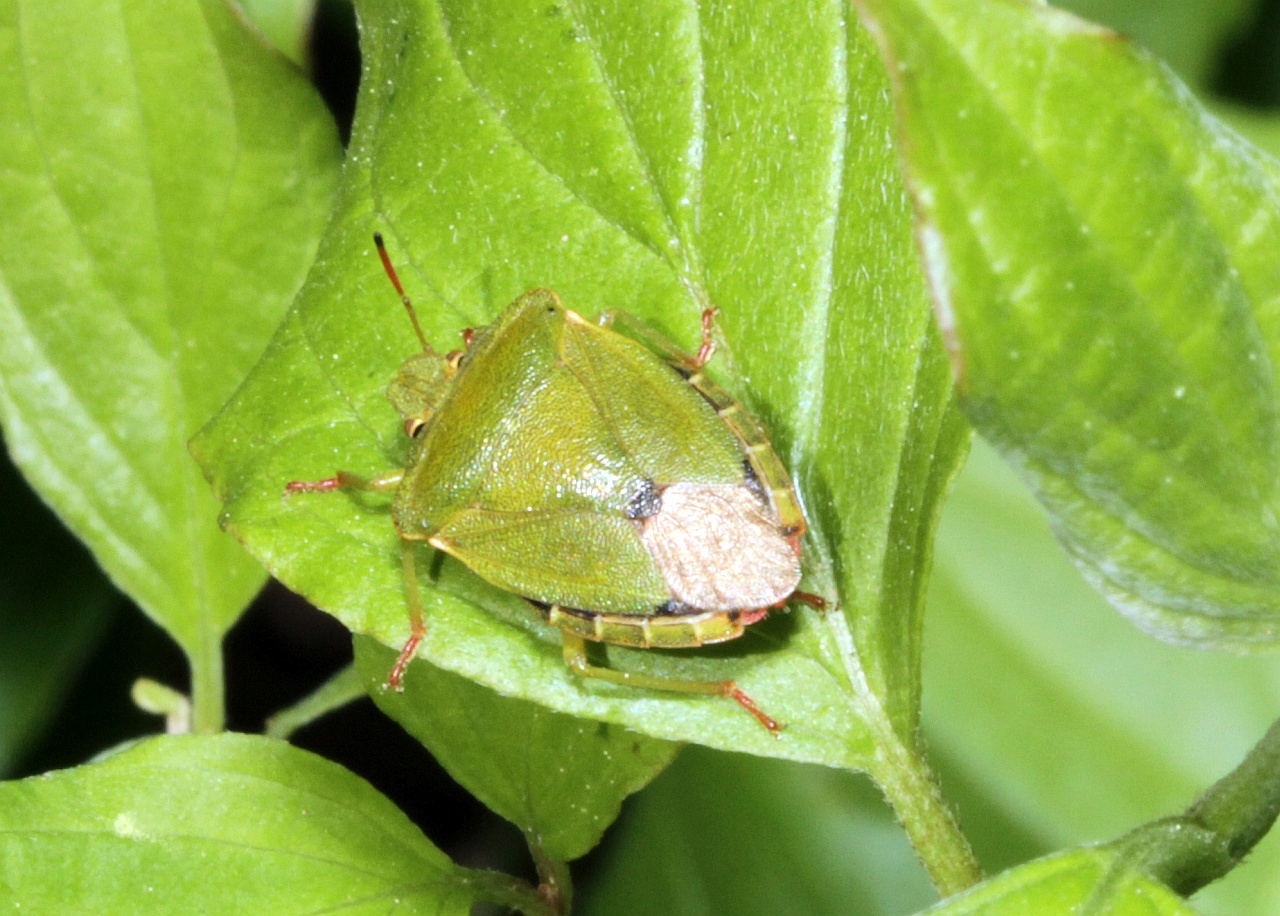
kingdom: Animalia
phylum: Arthropoda
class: Insecta
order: Hemiptera
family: Pentatomidae
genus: Palomena
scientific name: Palomena prasina
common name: Green shieldbug
